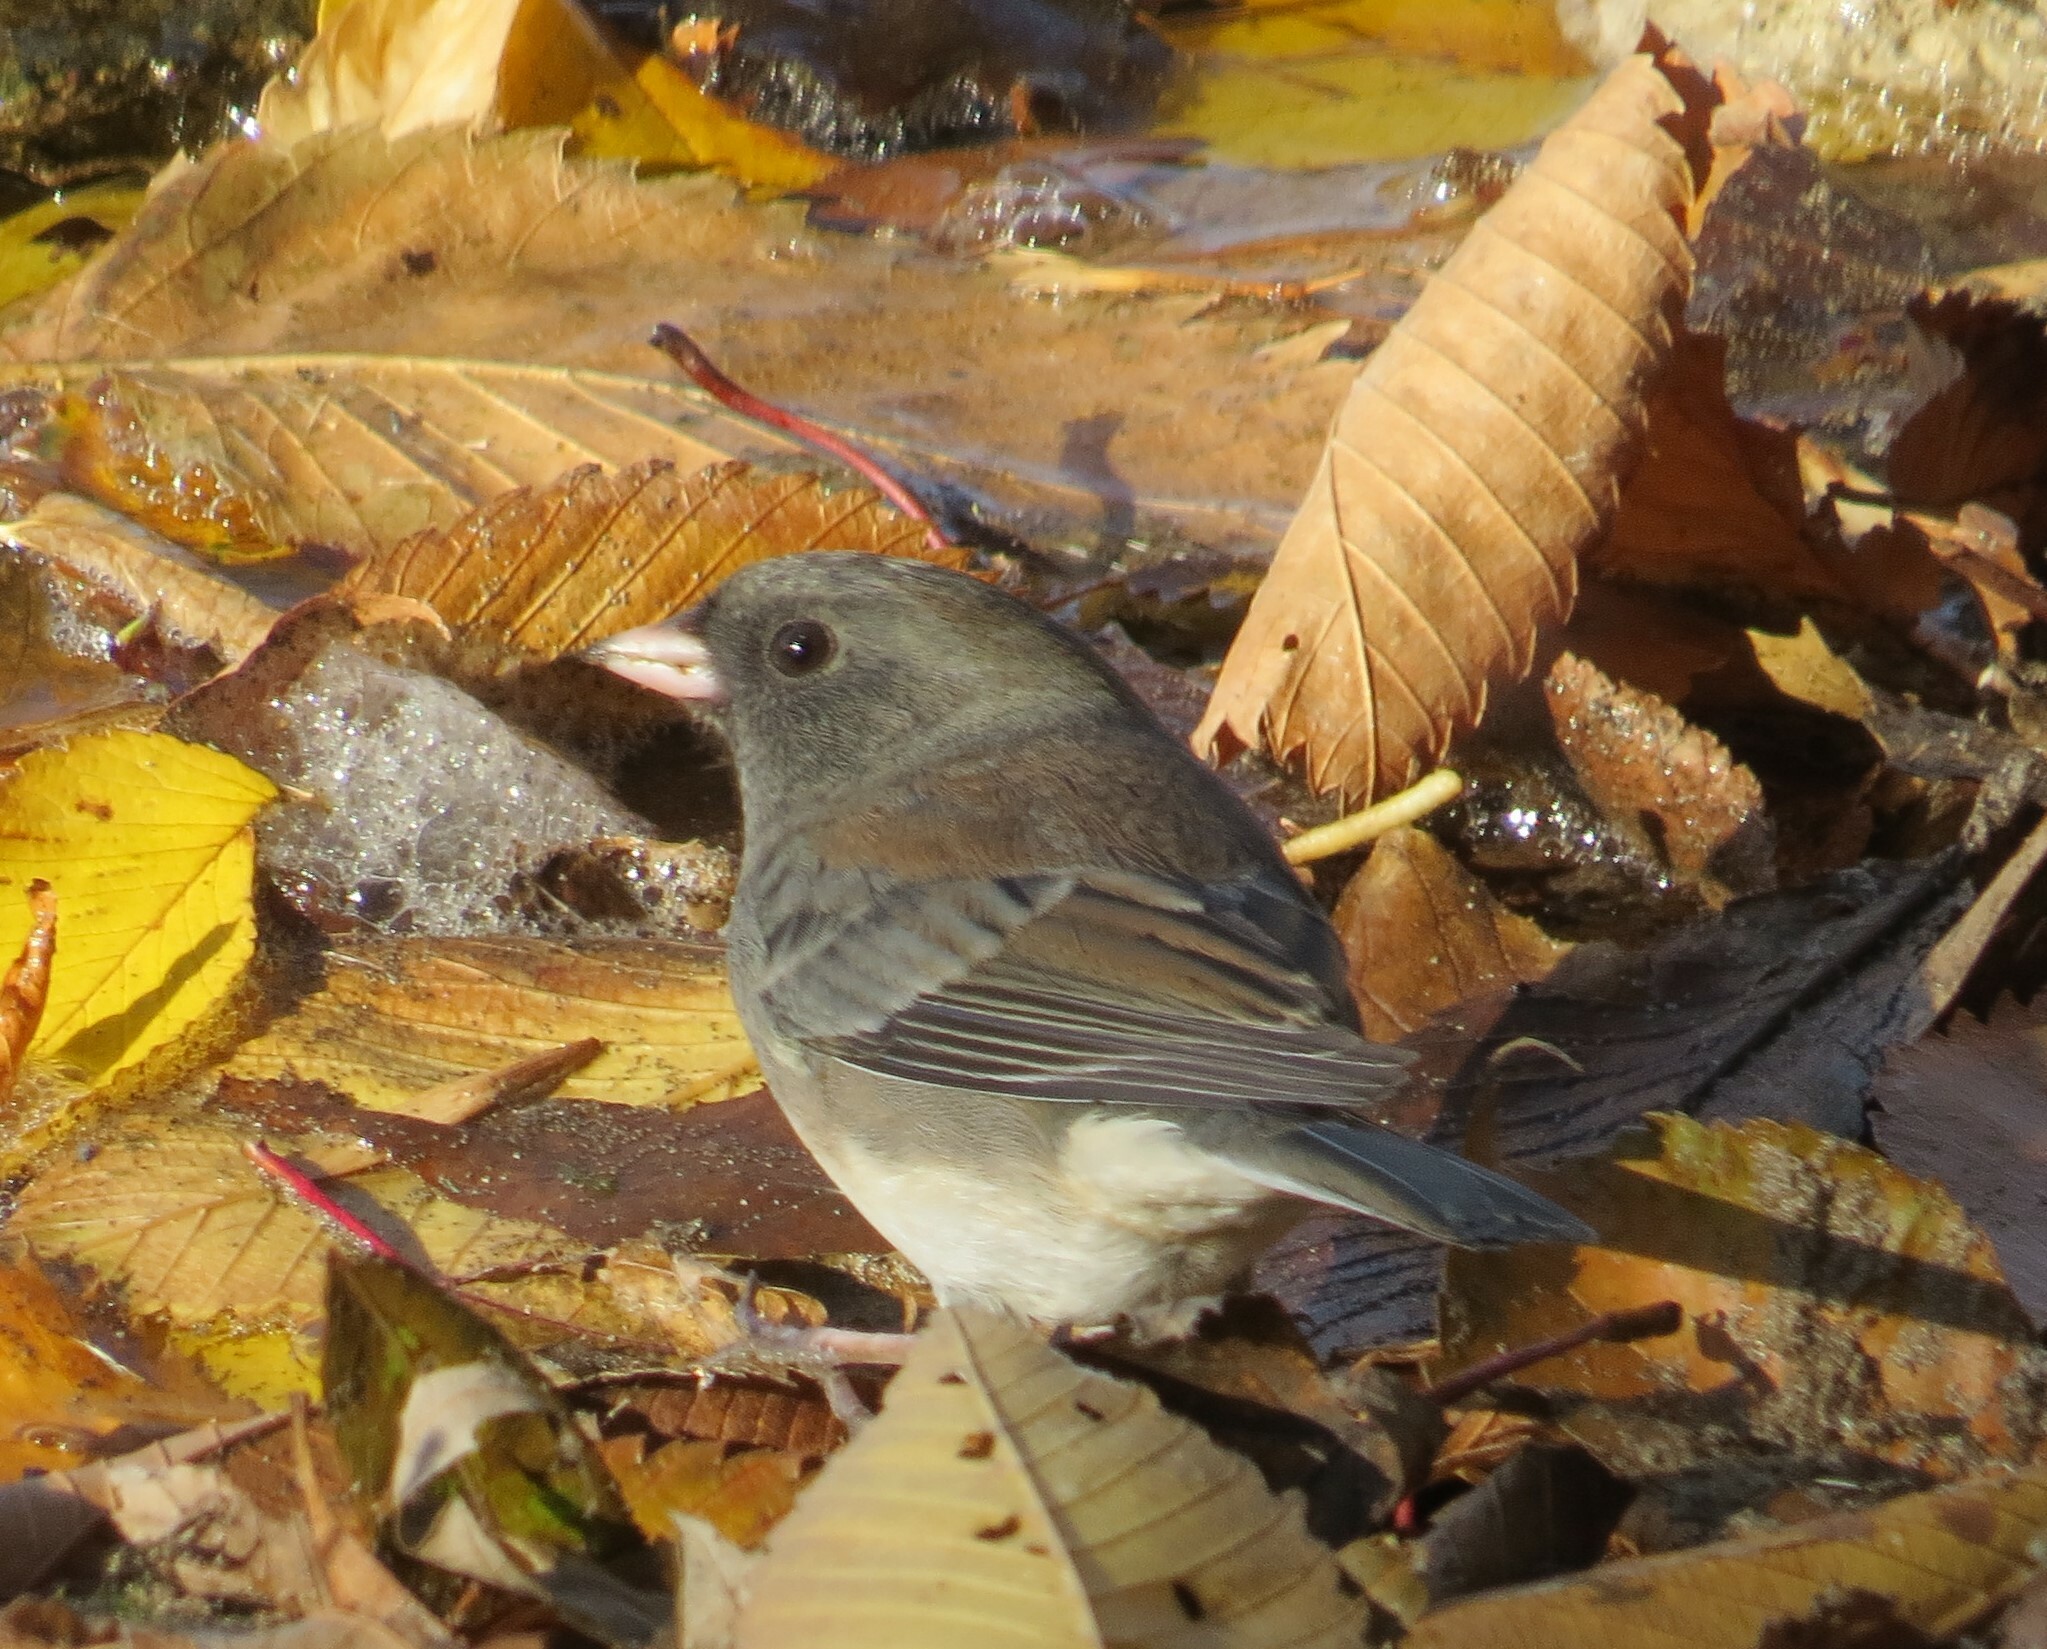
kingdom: Animalia
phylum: Chordata
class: Aves
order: Passeriformes
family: Passerellidae
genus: Junco
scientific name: Junco hyemalis
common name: Dark-eyed junco
